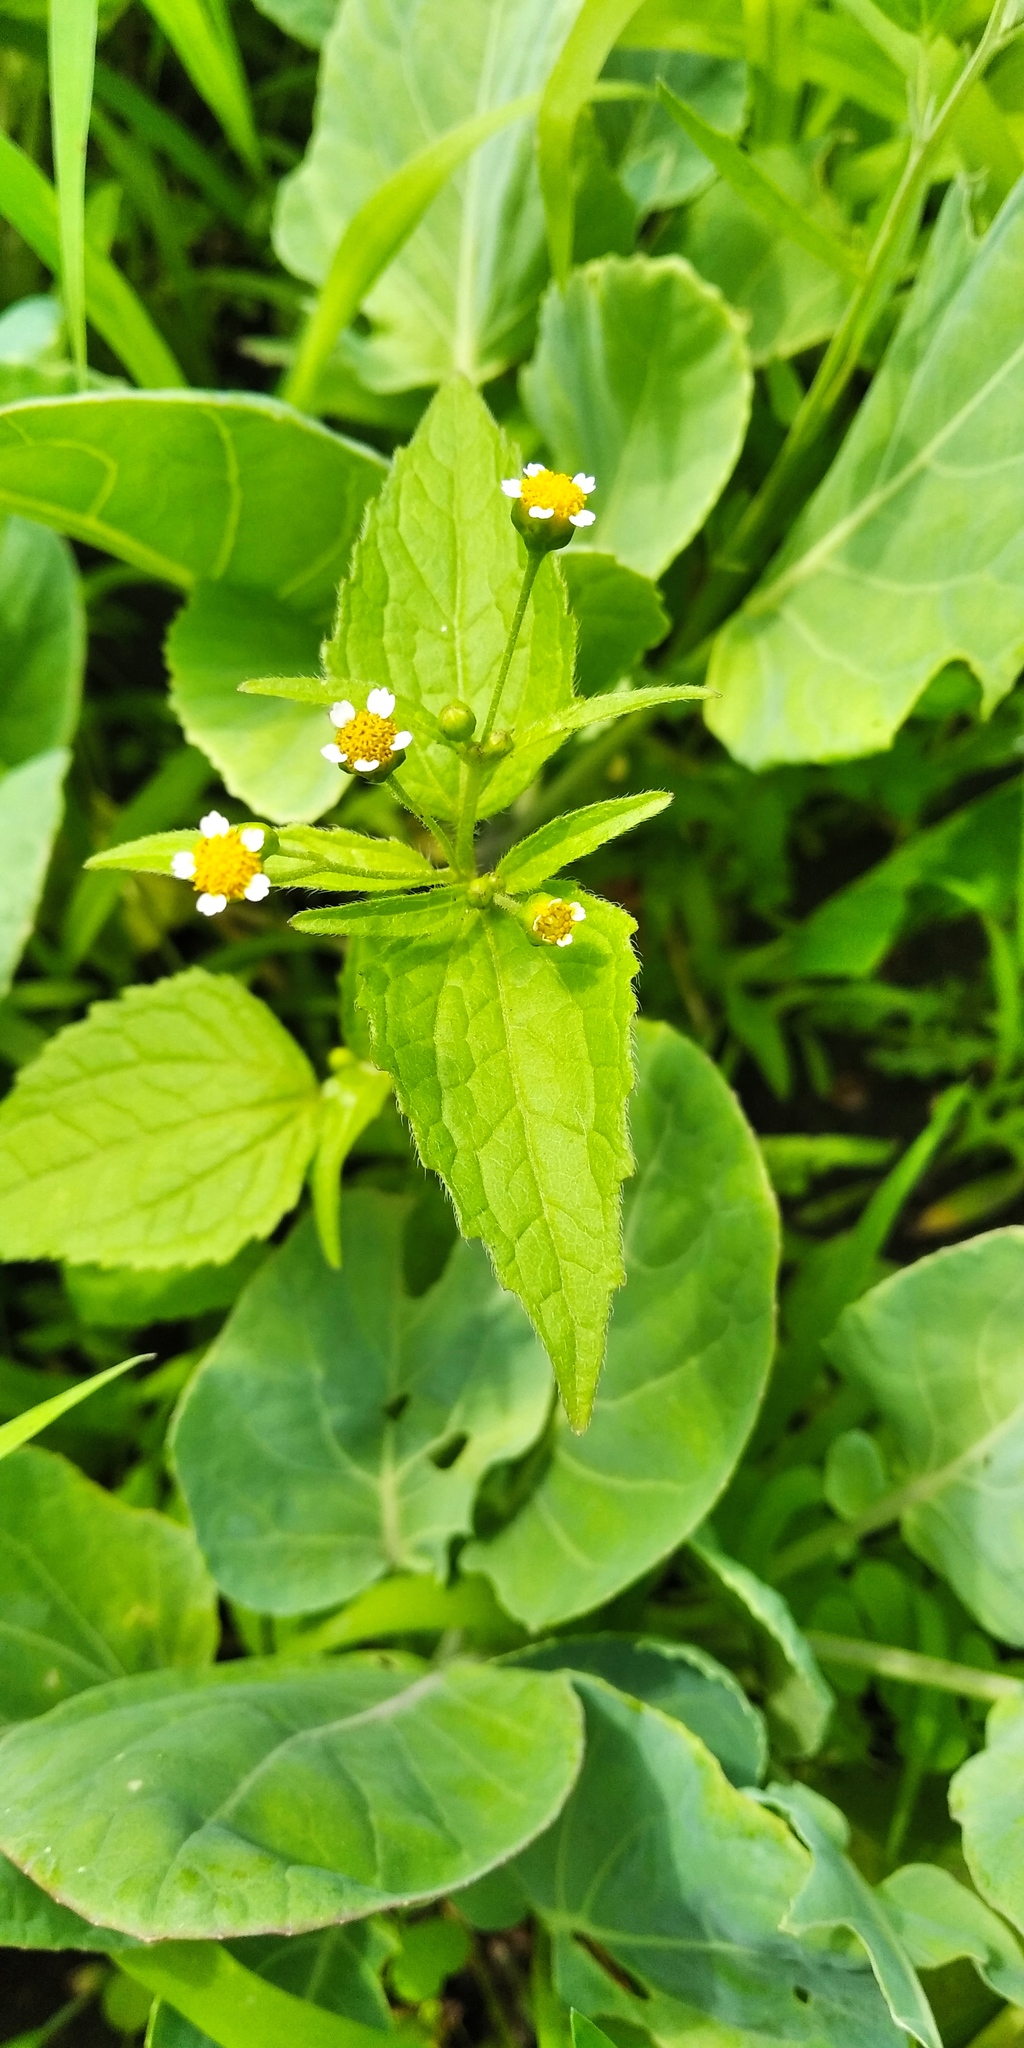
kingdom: Plantae
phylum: Tracheophyta
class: Magnoliopsida
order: Asterales
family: Asteraceae
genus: Galinsoga
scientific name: Galinsoga parviflora
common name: Gallant soldier
